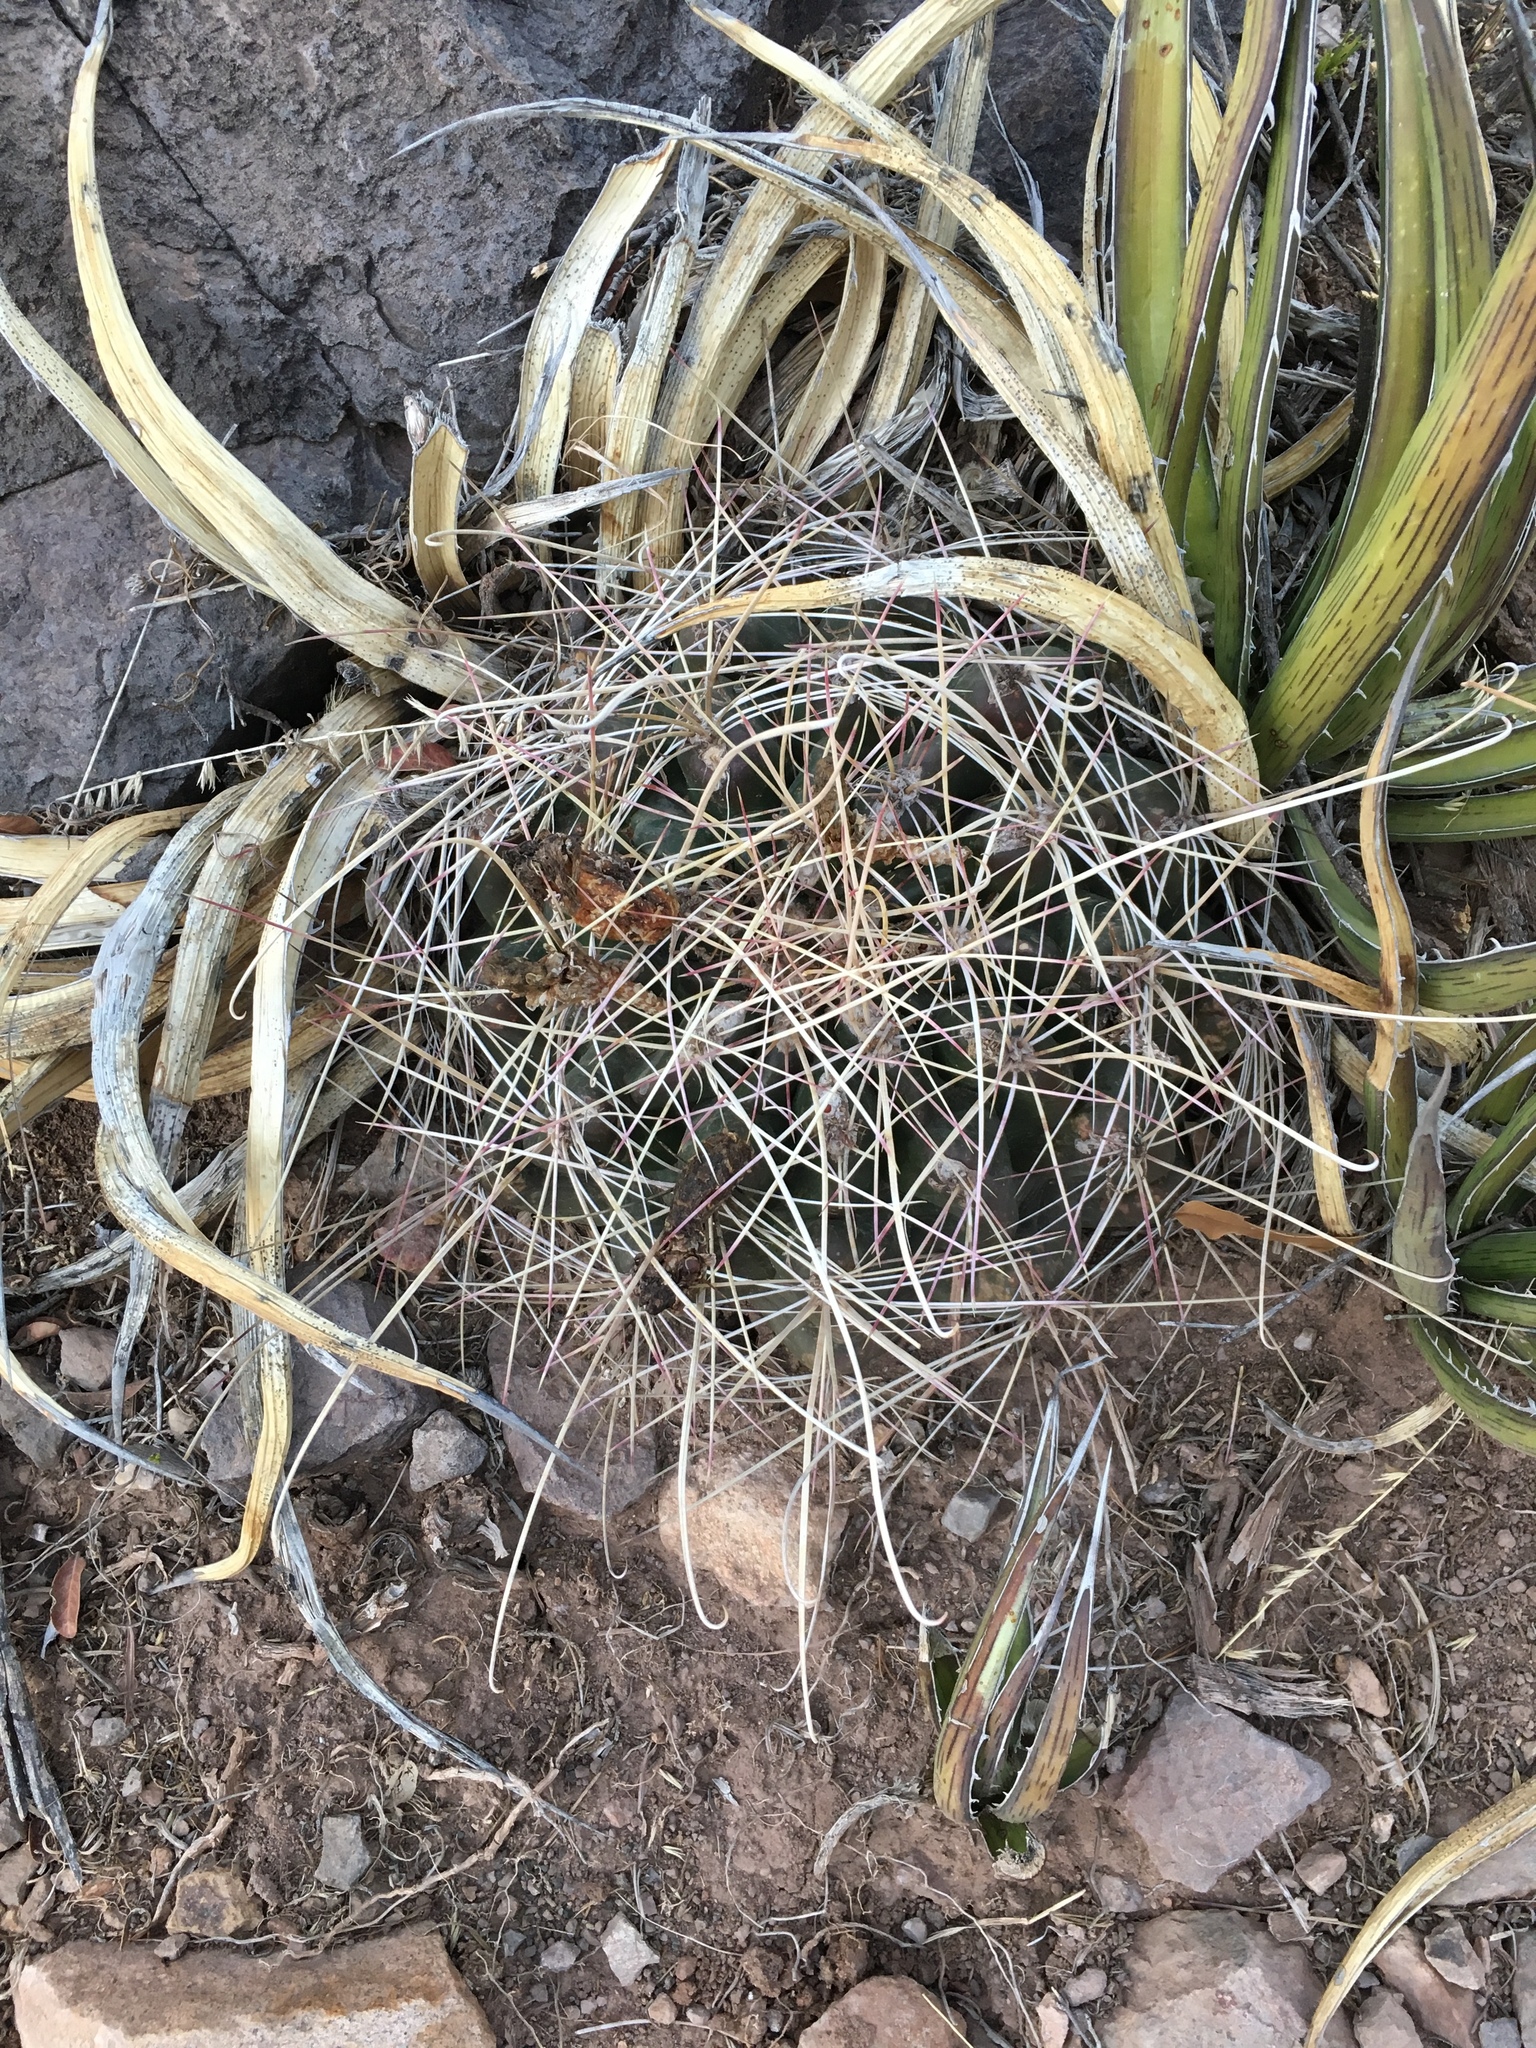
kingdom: Plantae
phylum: Tracheophyta
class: Magnoliopsida
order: Caryophyllales
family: Cactaceae
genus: Bisnaga
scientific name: Bisnaga hamatacantha
